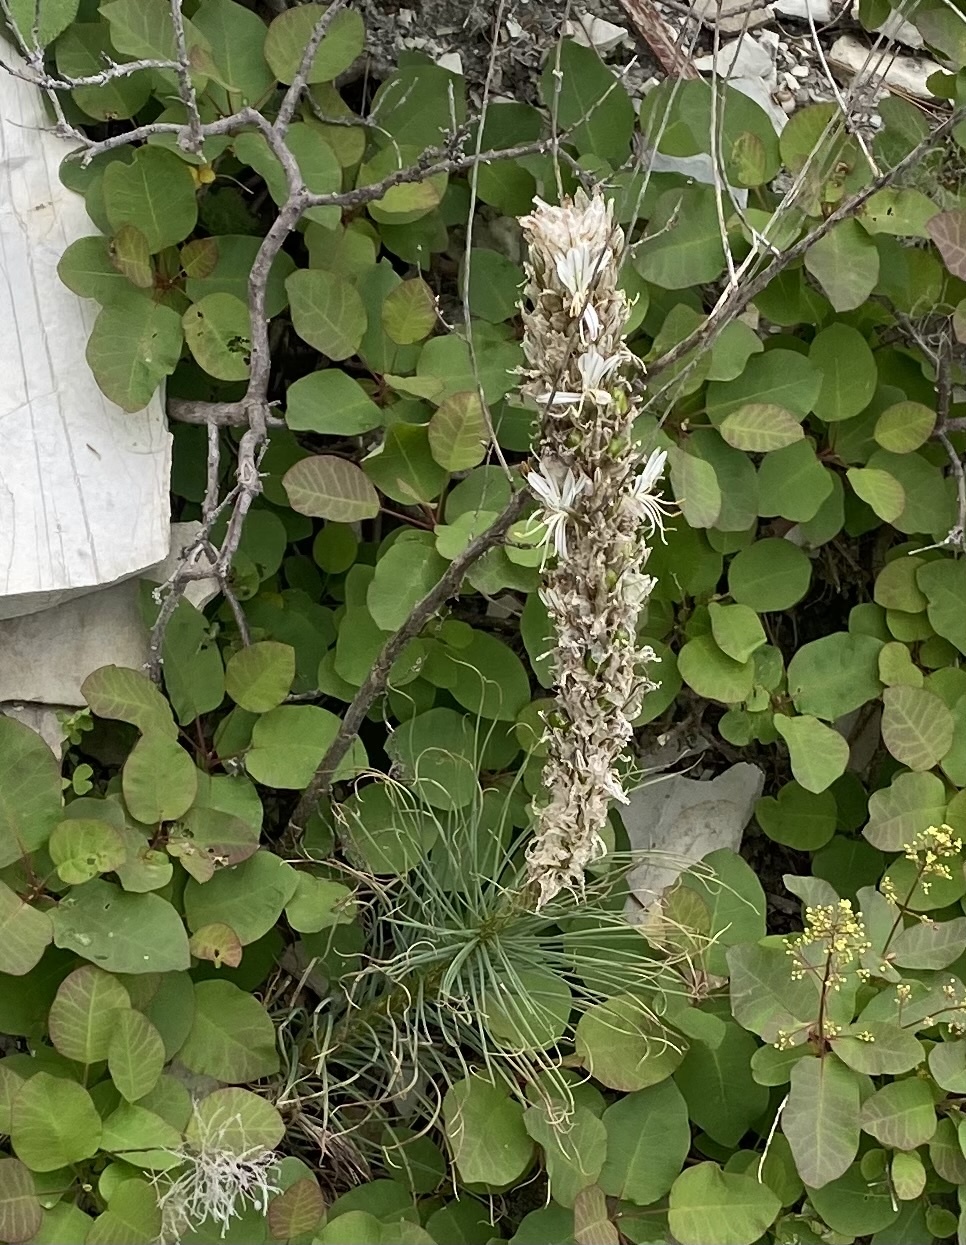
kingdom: Plantae
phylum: Tracheophyta
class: Liliopsida
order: Asparagales
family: Asphodelaceae
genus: Asphodeline
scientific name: Asphodeline taurica
